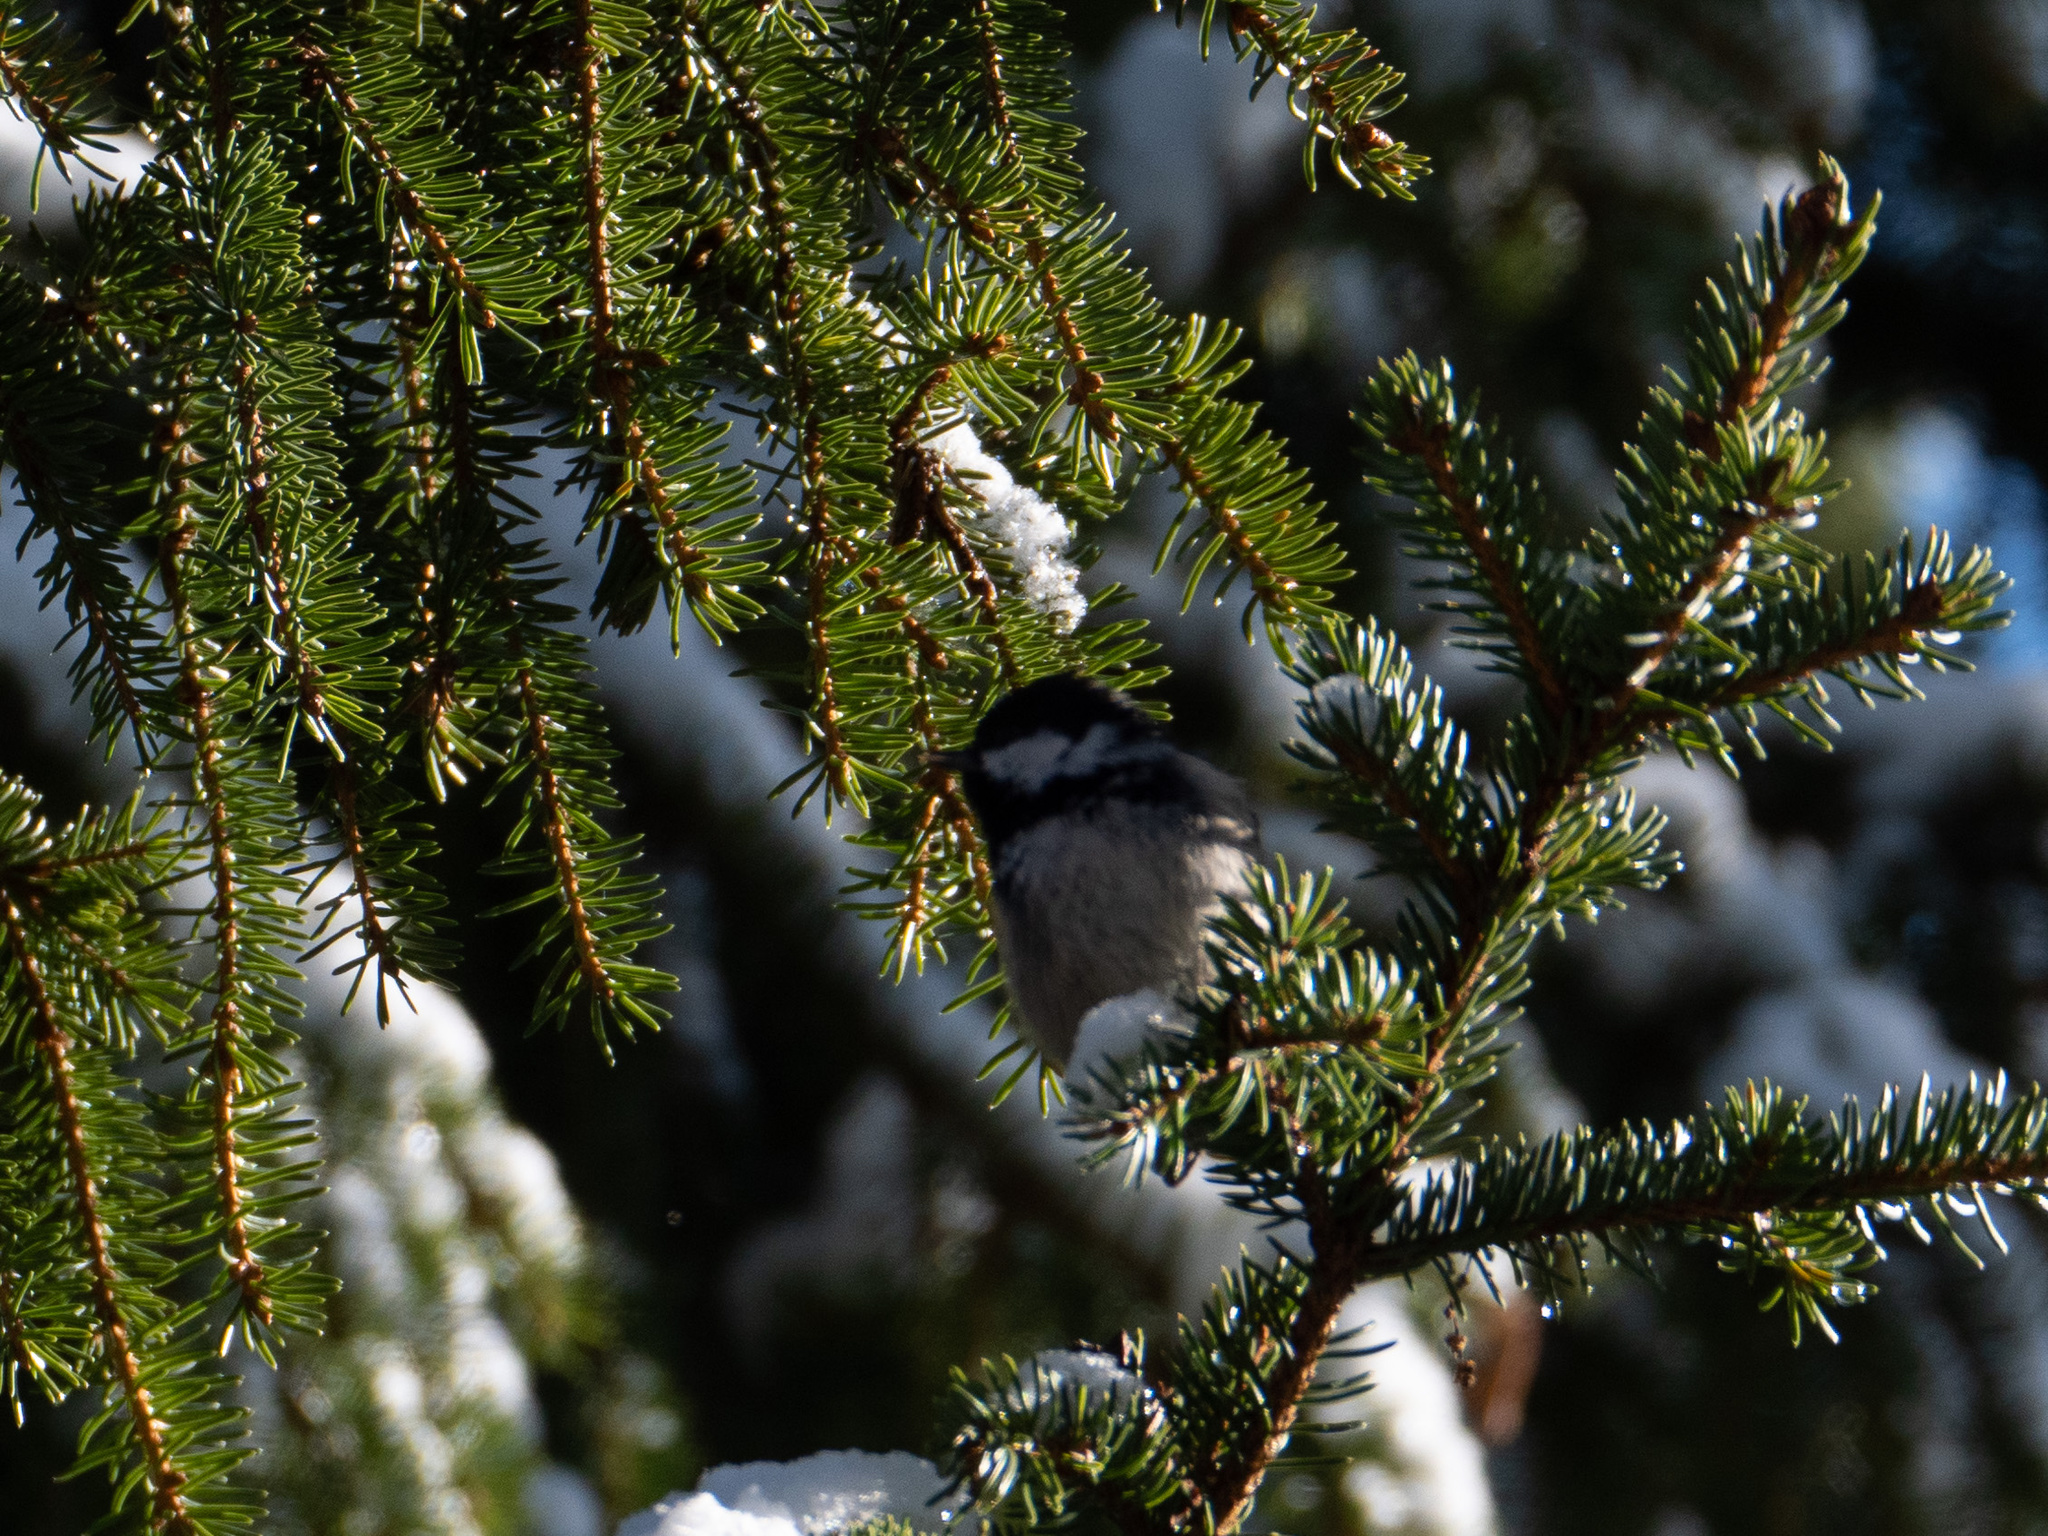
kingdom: Animalia
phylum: Chordata
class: Aves
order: Passeriformes
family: Paridae
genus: Periparus
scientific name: Periparus ater
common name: Coal tit
